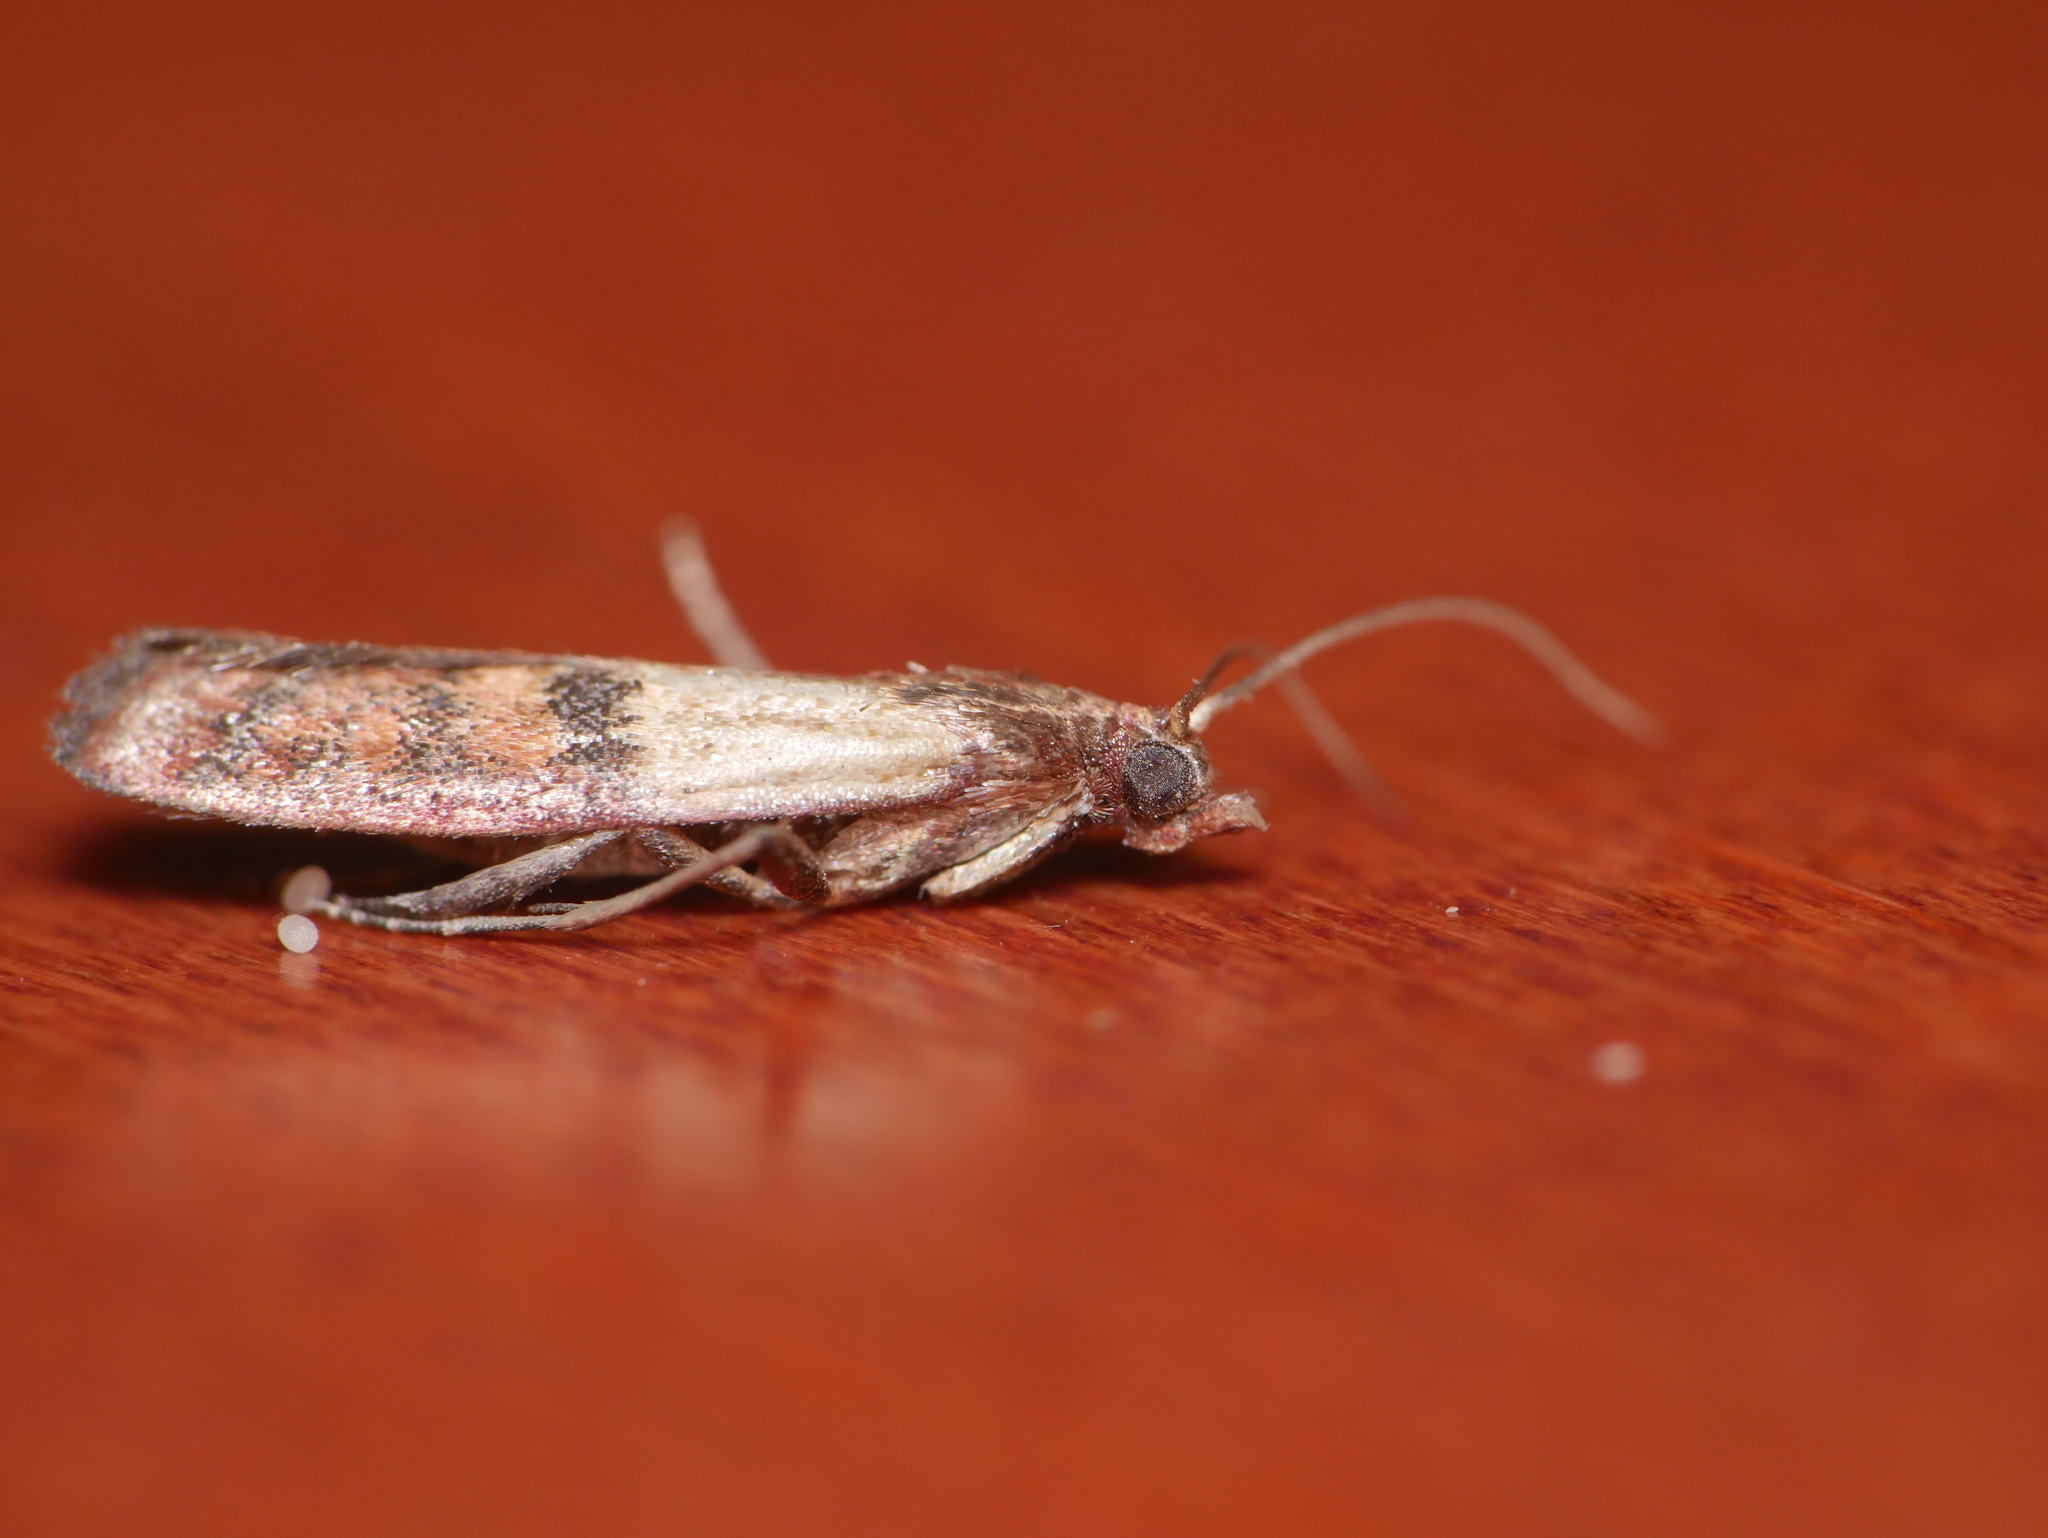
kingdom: Animalia
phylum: Arthropoda
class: Insecta
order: Lepidoptera
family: Pyralidae
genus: Plodia
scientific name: Plodia interpunctella
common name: Indian meal moth
